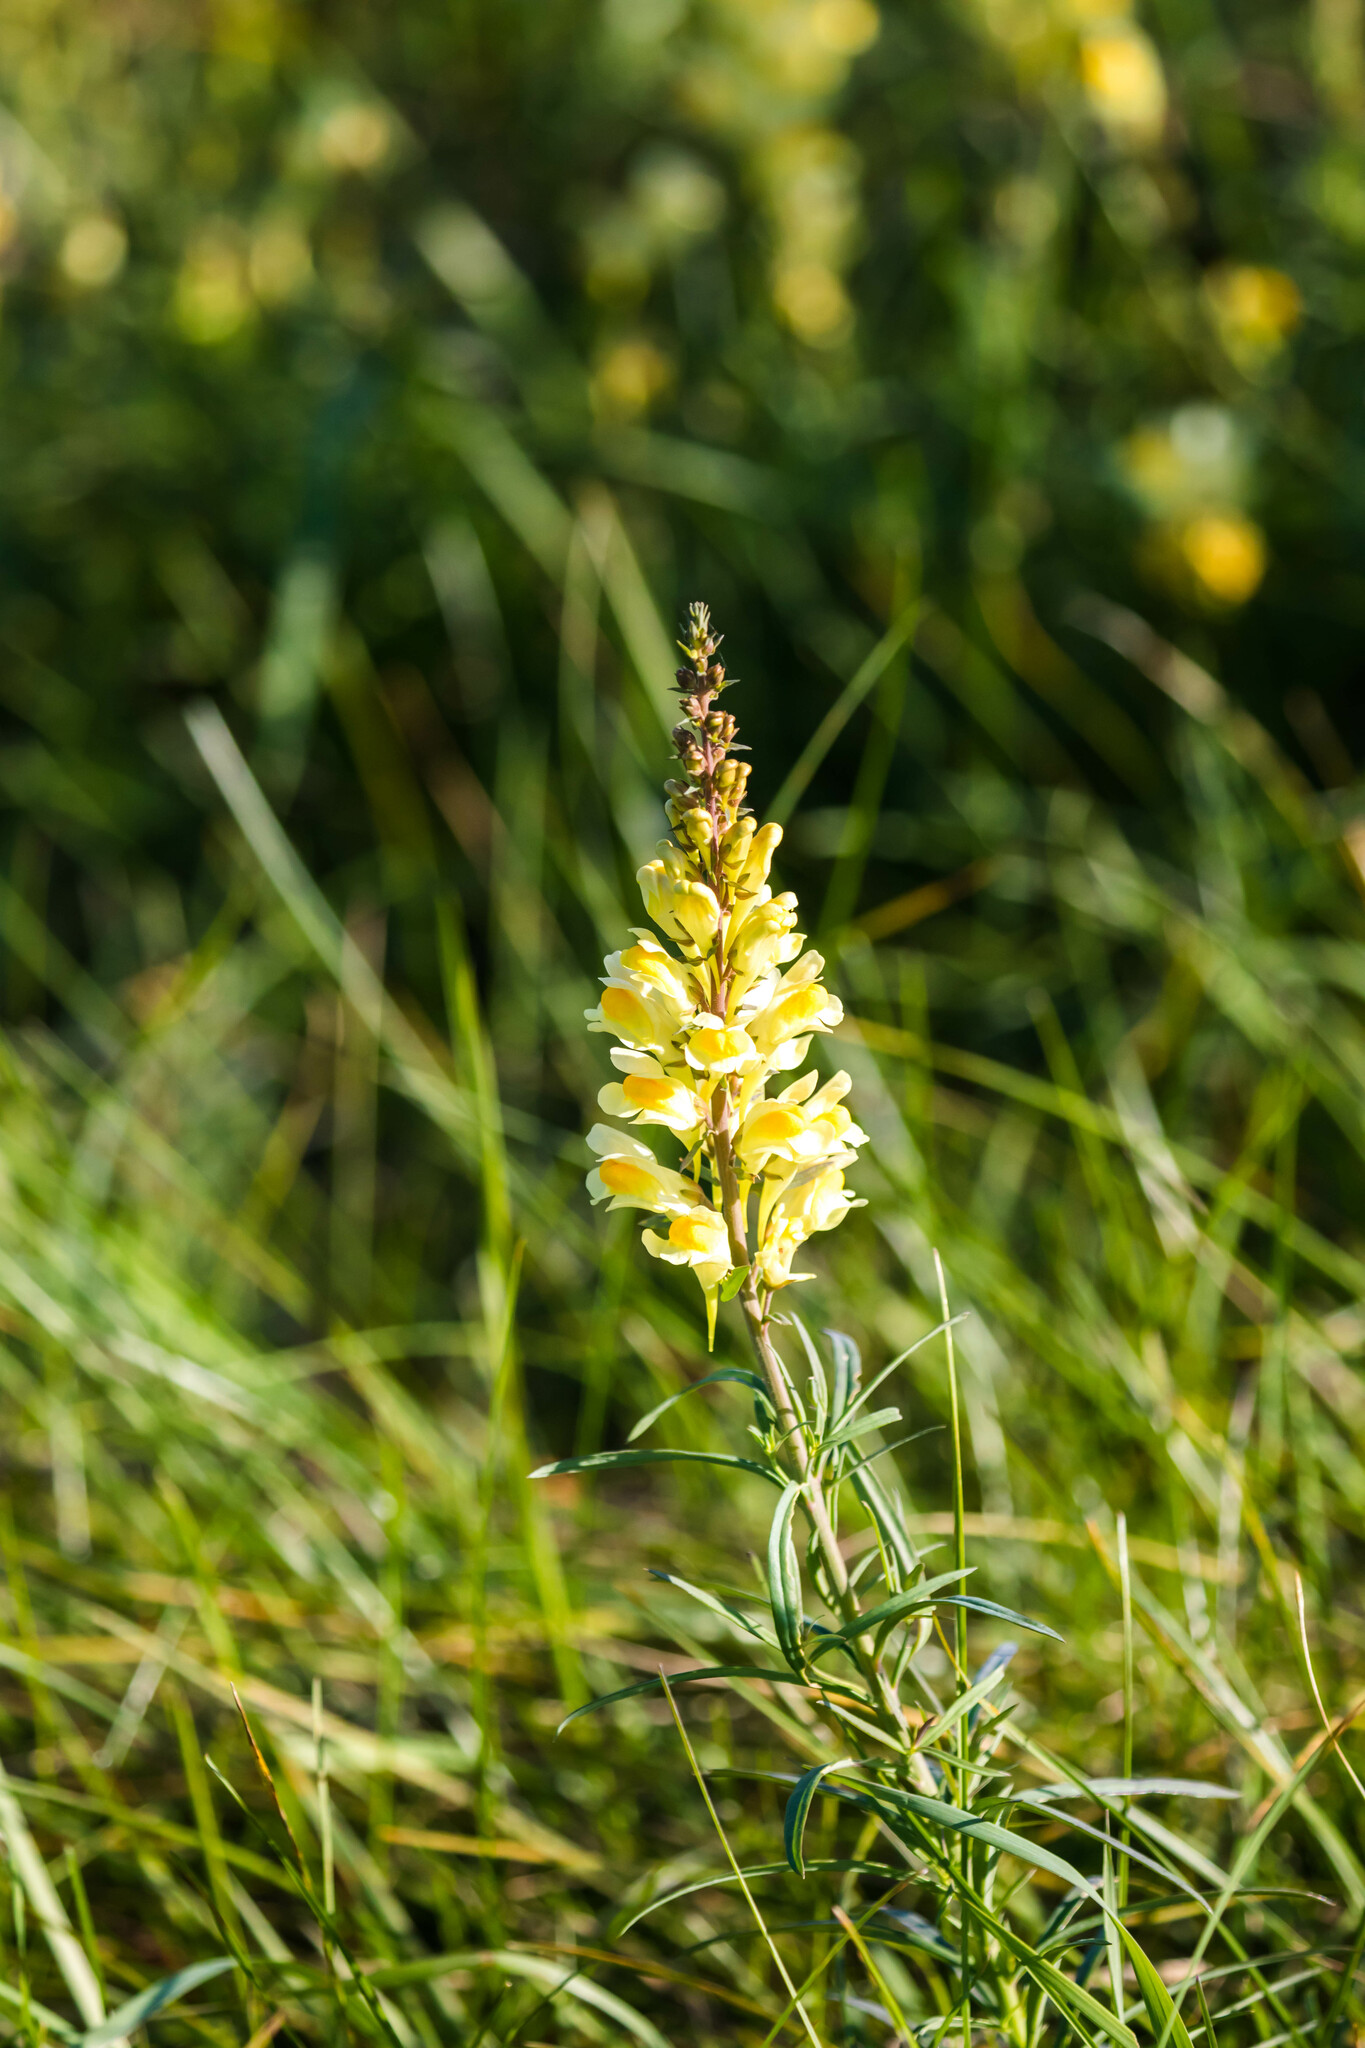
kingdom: Plantae
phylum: Tracheophyta
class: Magnoliopsida
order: Lamiales
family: Plantaginaceae
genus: Linaria
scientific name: Linaria vulgaris
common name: Butter and eggs
